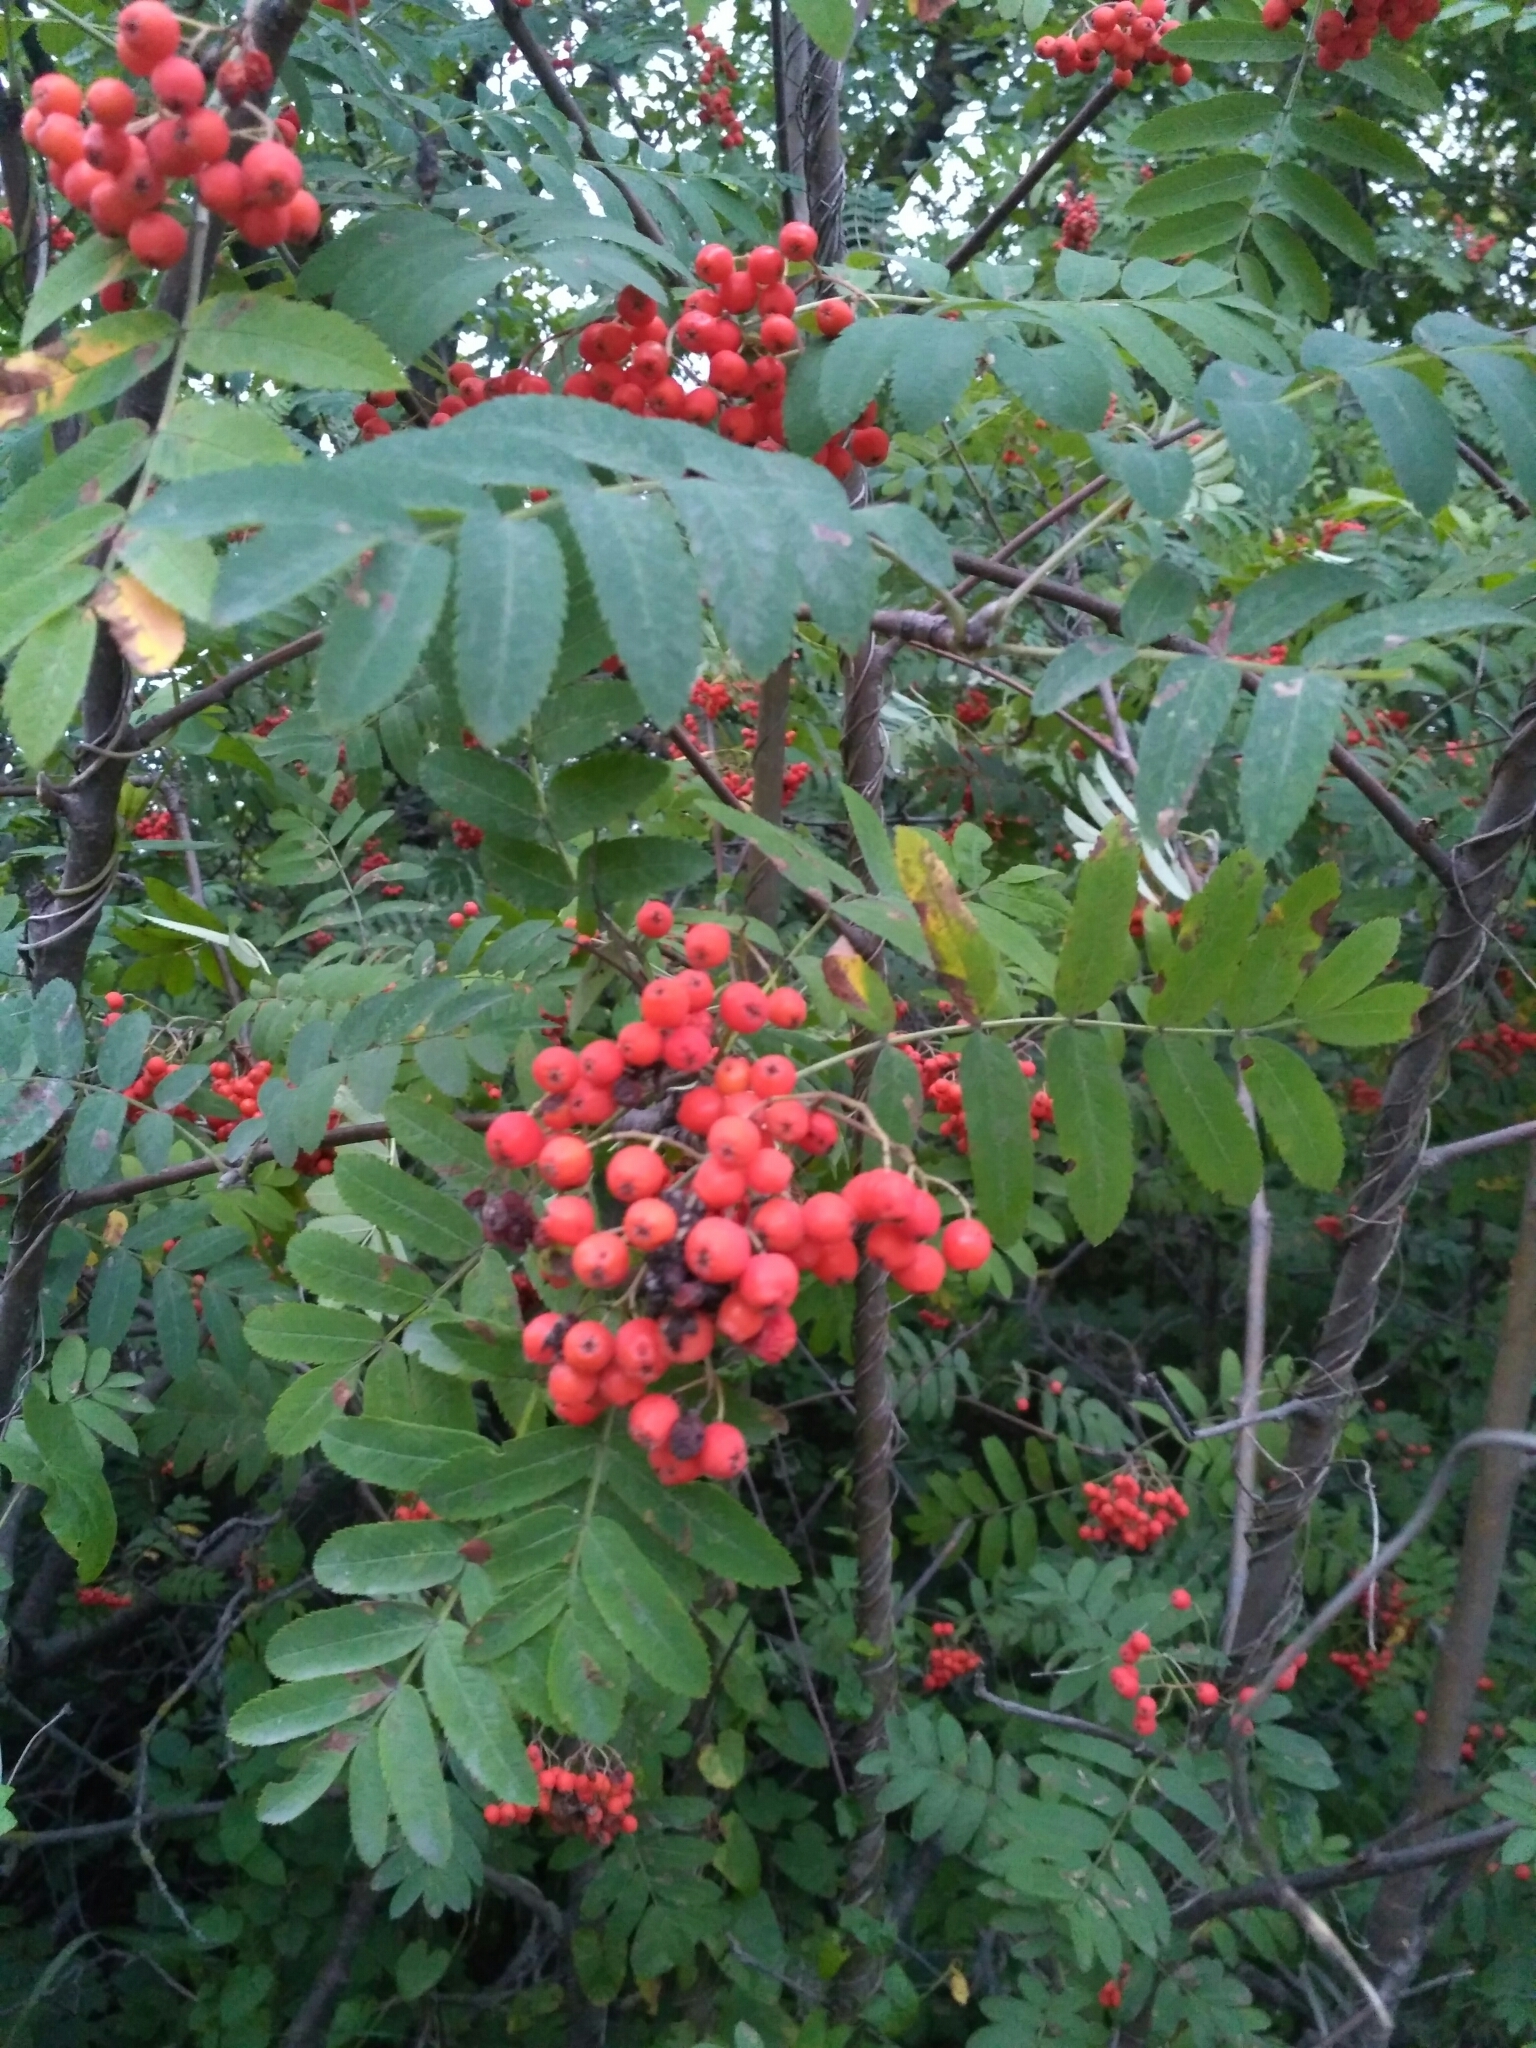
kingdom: Plantae
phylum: Tracheophyta
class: Magnoliopsida
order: Rosales
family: Rosaceae
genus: Sorbus
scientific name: Sorbus aucuparia
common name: Rowan
